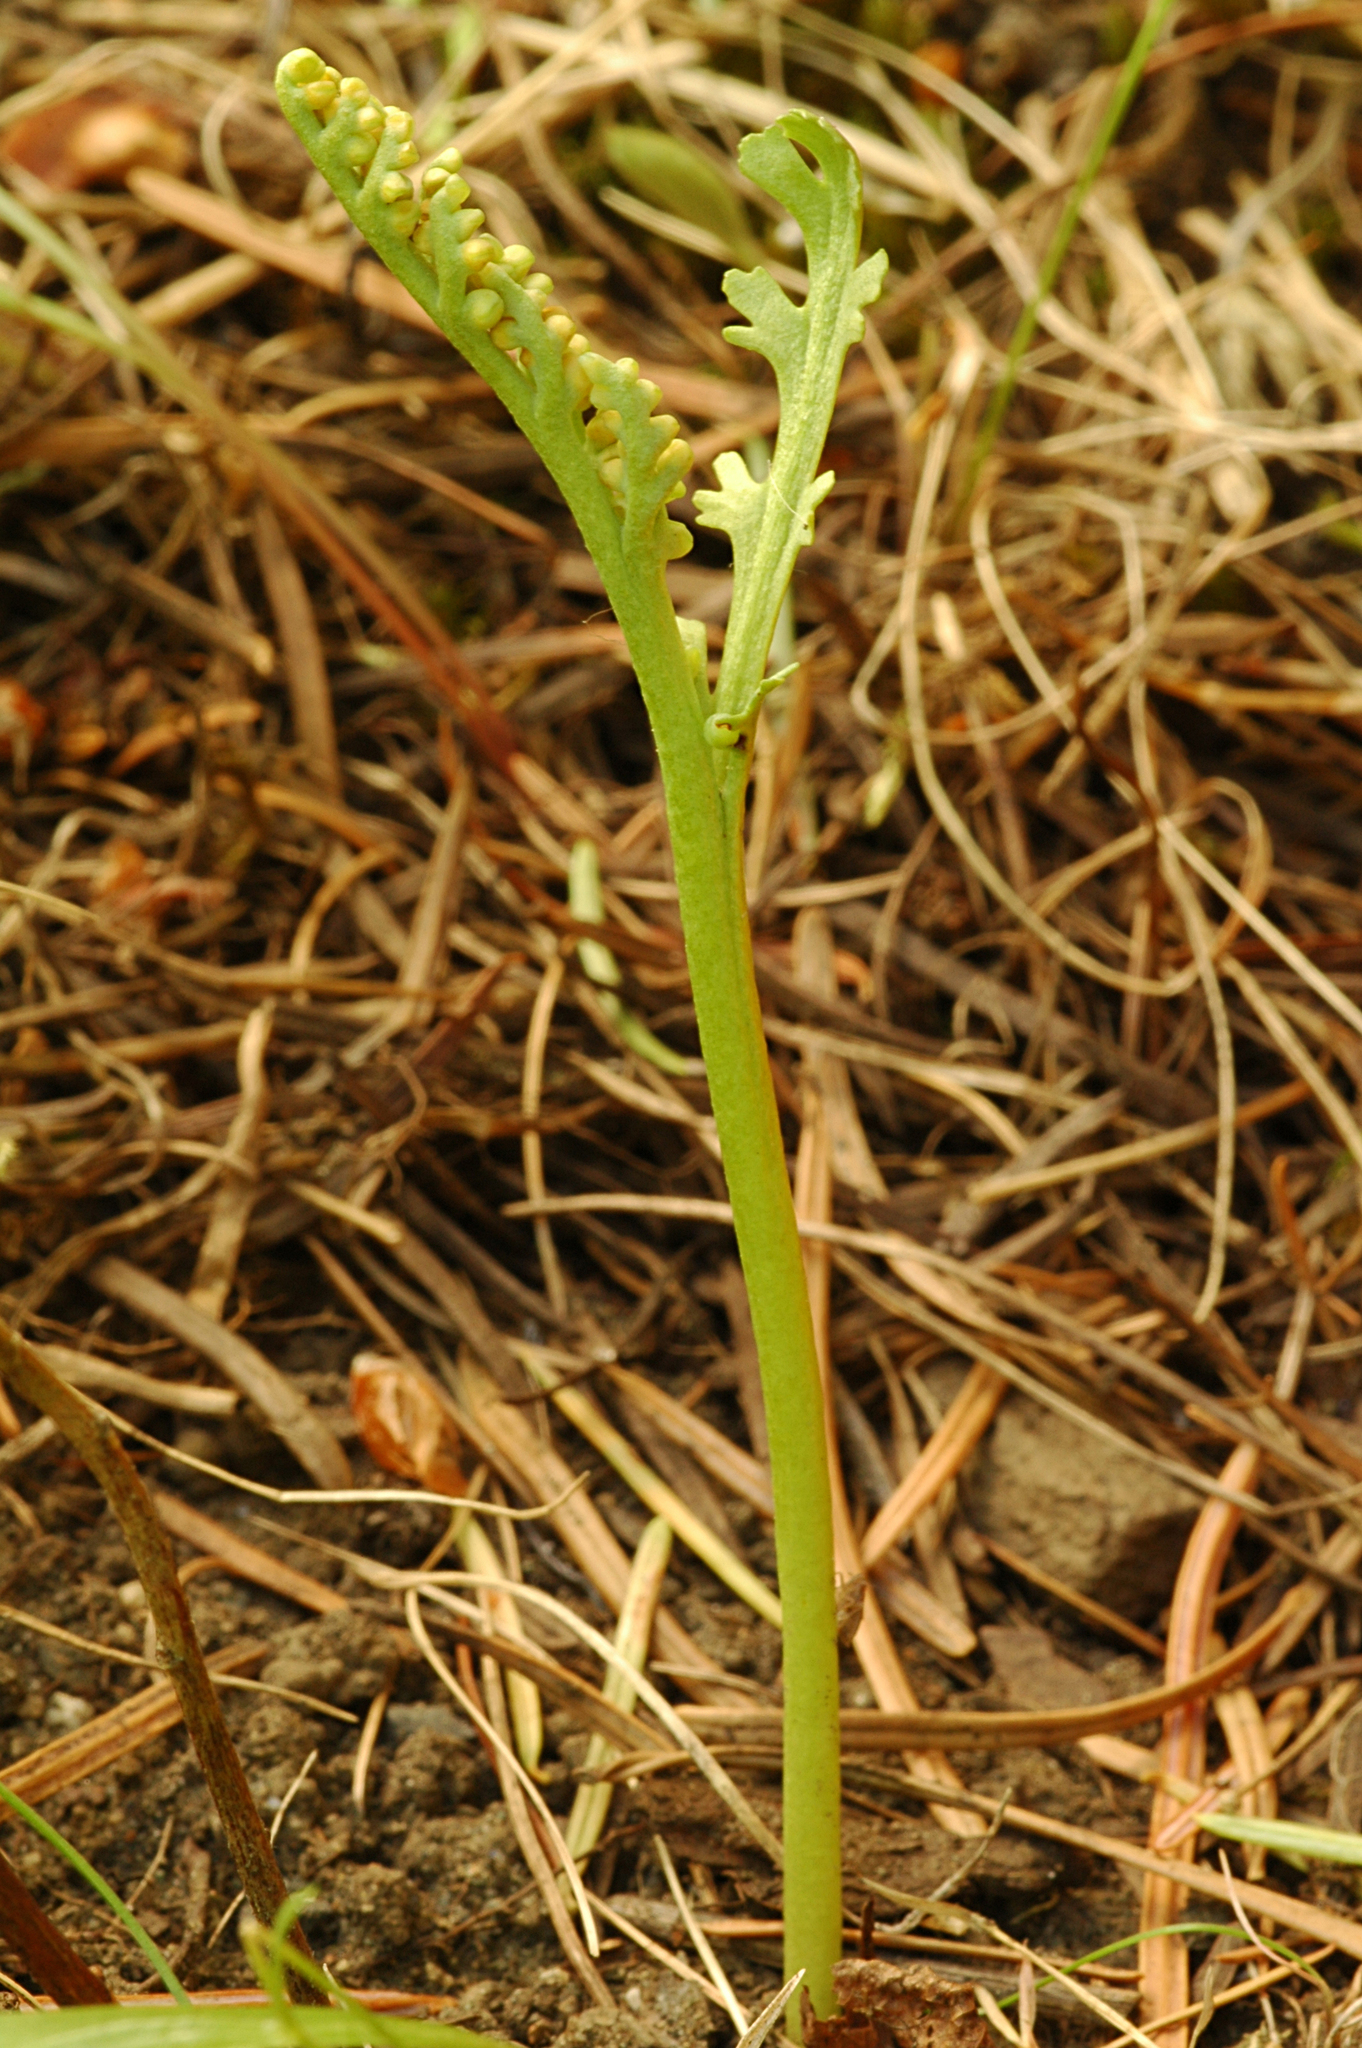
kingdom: Plantae
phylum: Tracheophyta
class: Polypodiopsida
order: Ophioglossales
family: Ophioglossaceae
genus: Botrychium
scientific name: Botrychium ascendens
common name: Ascending grapefern
